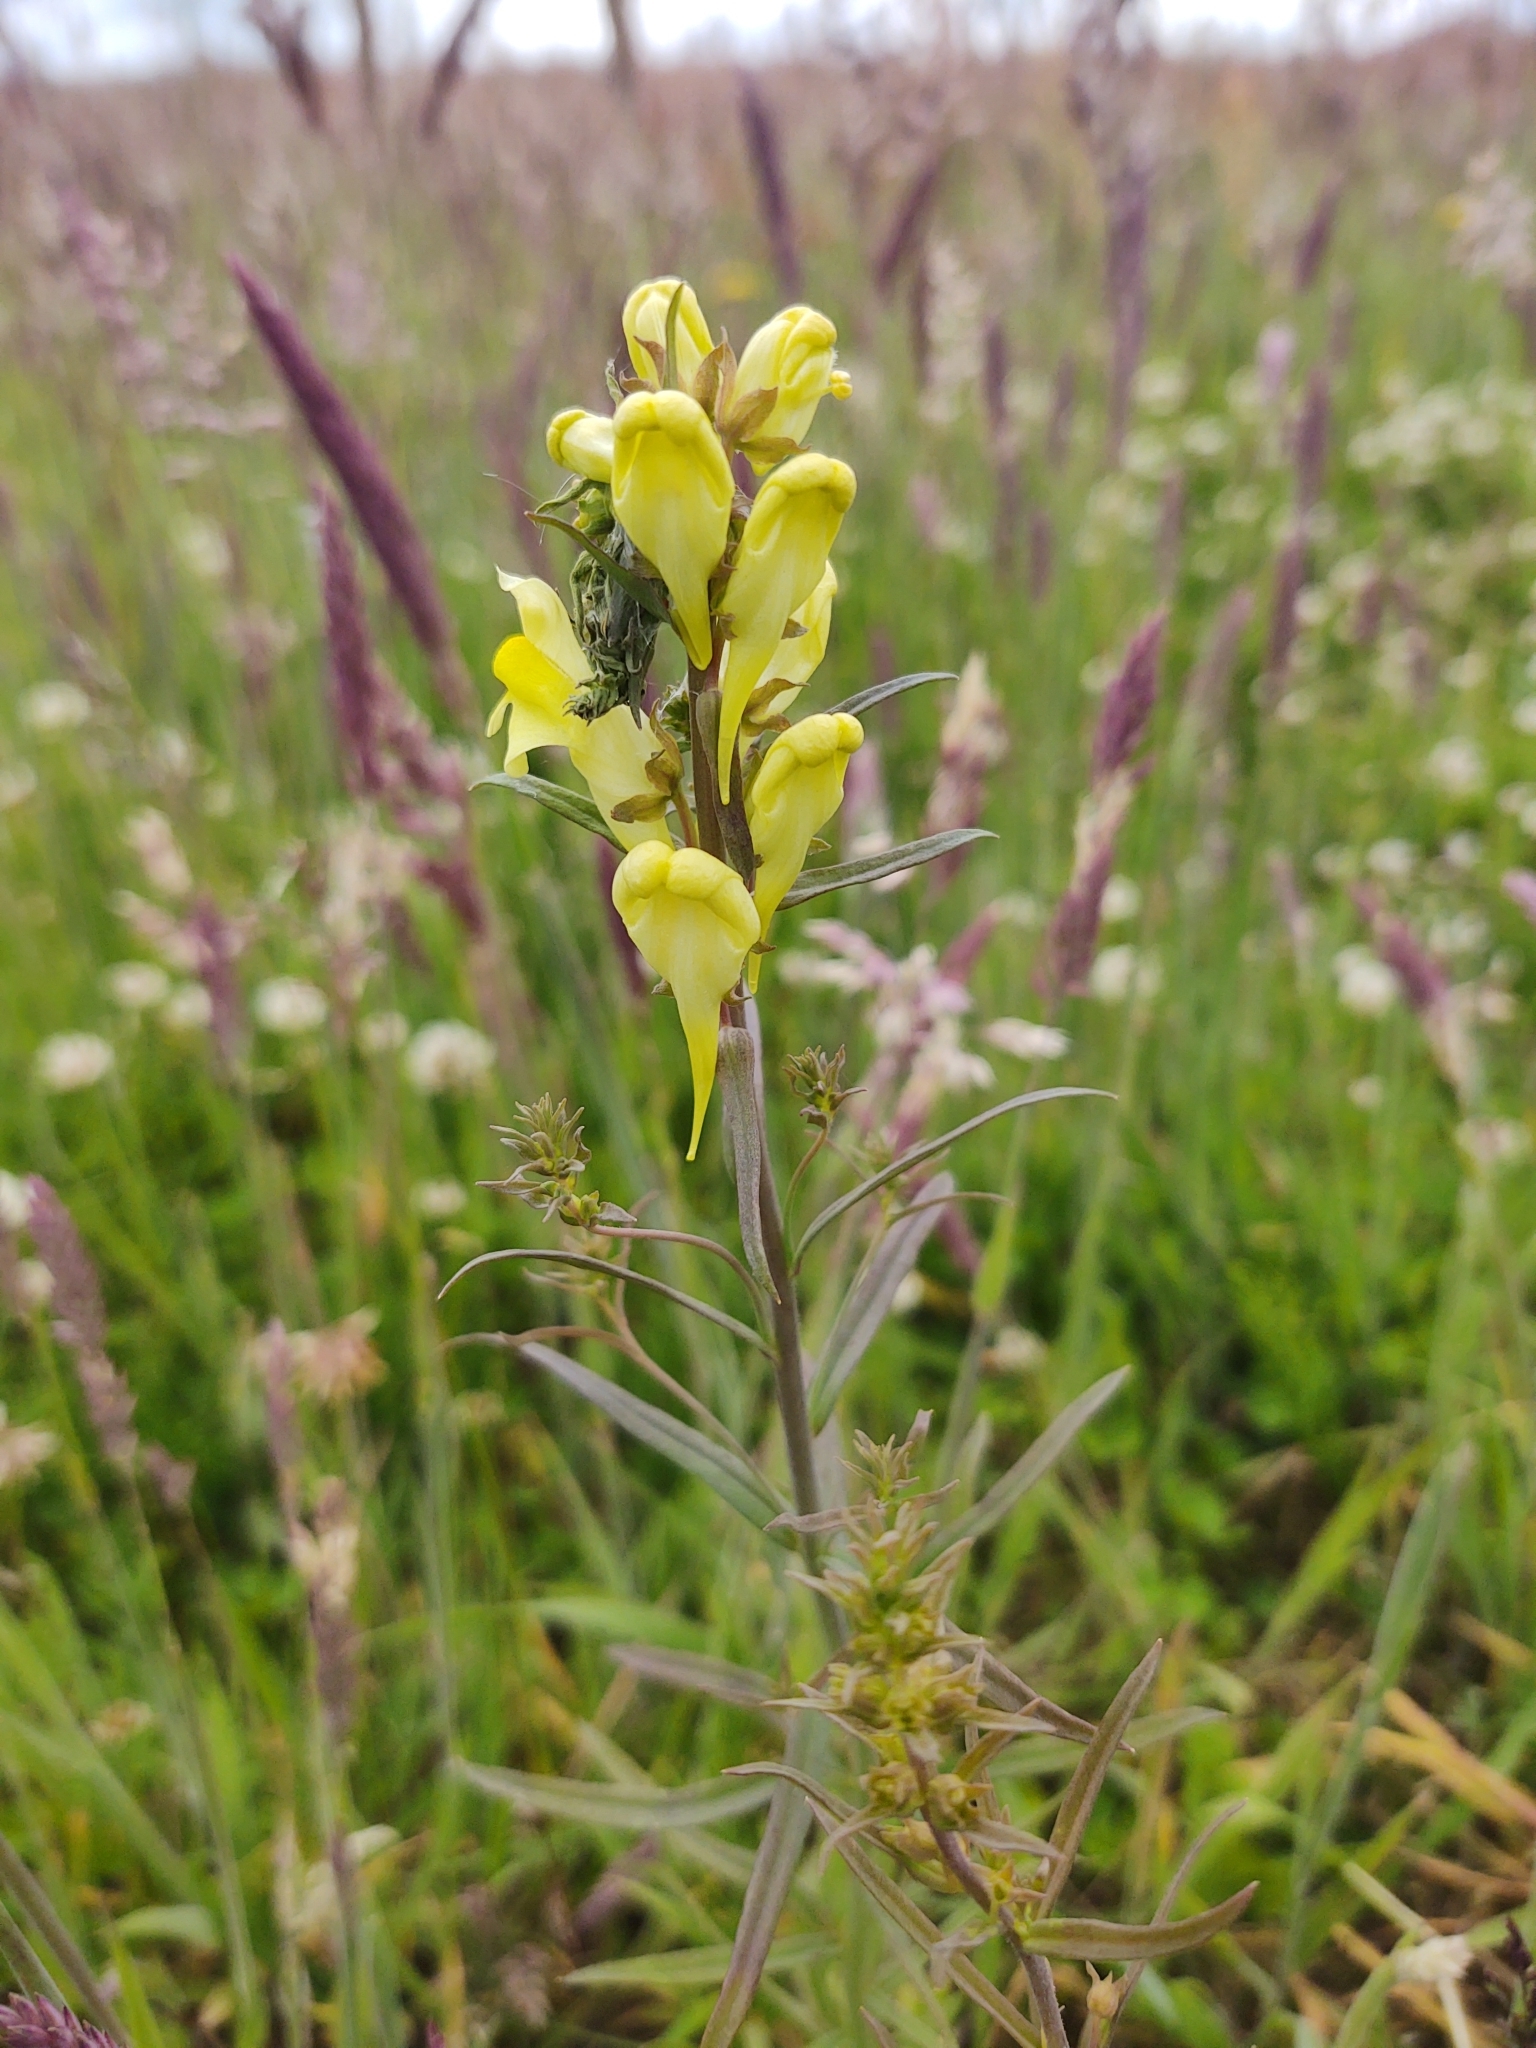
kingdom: Plantae
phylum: Tracheophyta
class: Magnoliopsida
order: Lamiales
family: Plantaginaceae
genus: Linaria
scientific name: Linaria vulgaris
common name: Butter and eggs
